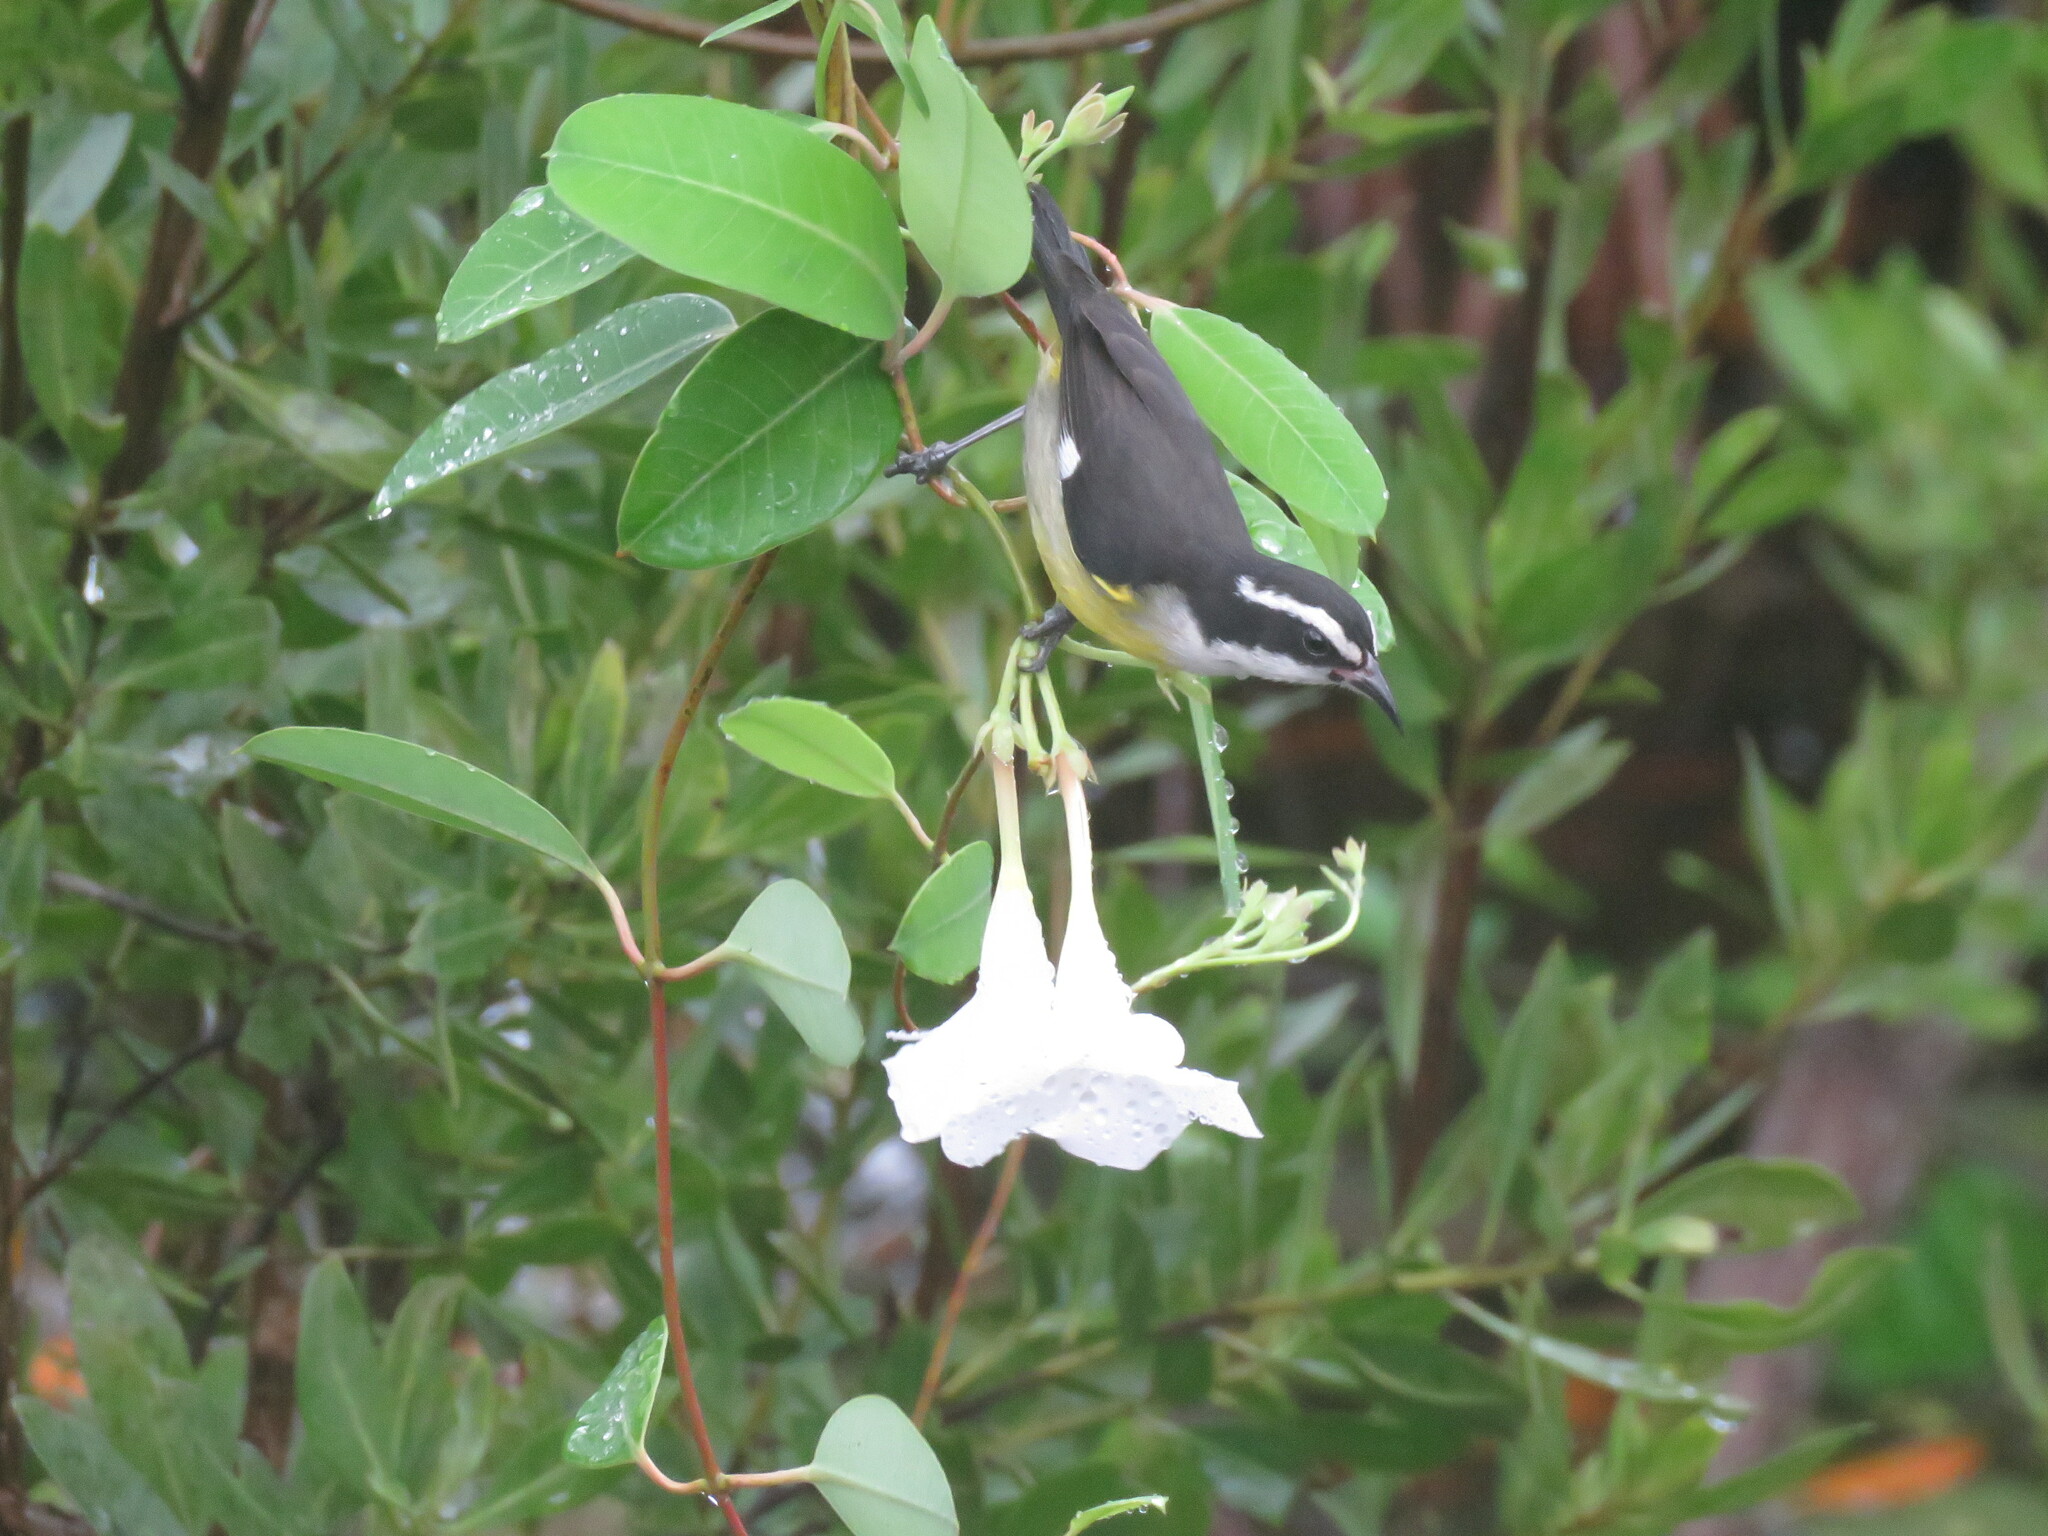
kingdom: Animalia
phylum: Chordata
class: Aves
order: Passeriformes
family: Thraupidae
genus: Coereba
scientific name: Coereba flaveola
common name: Bananaquit
